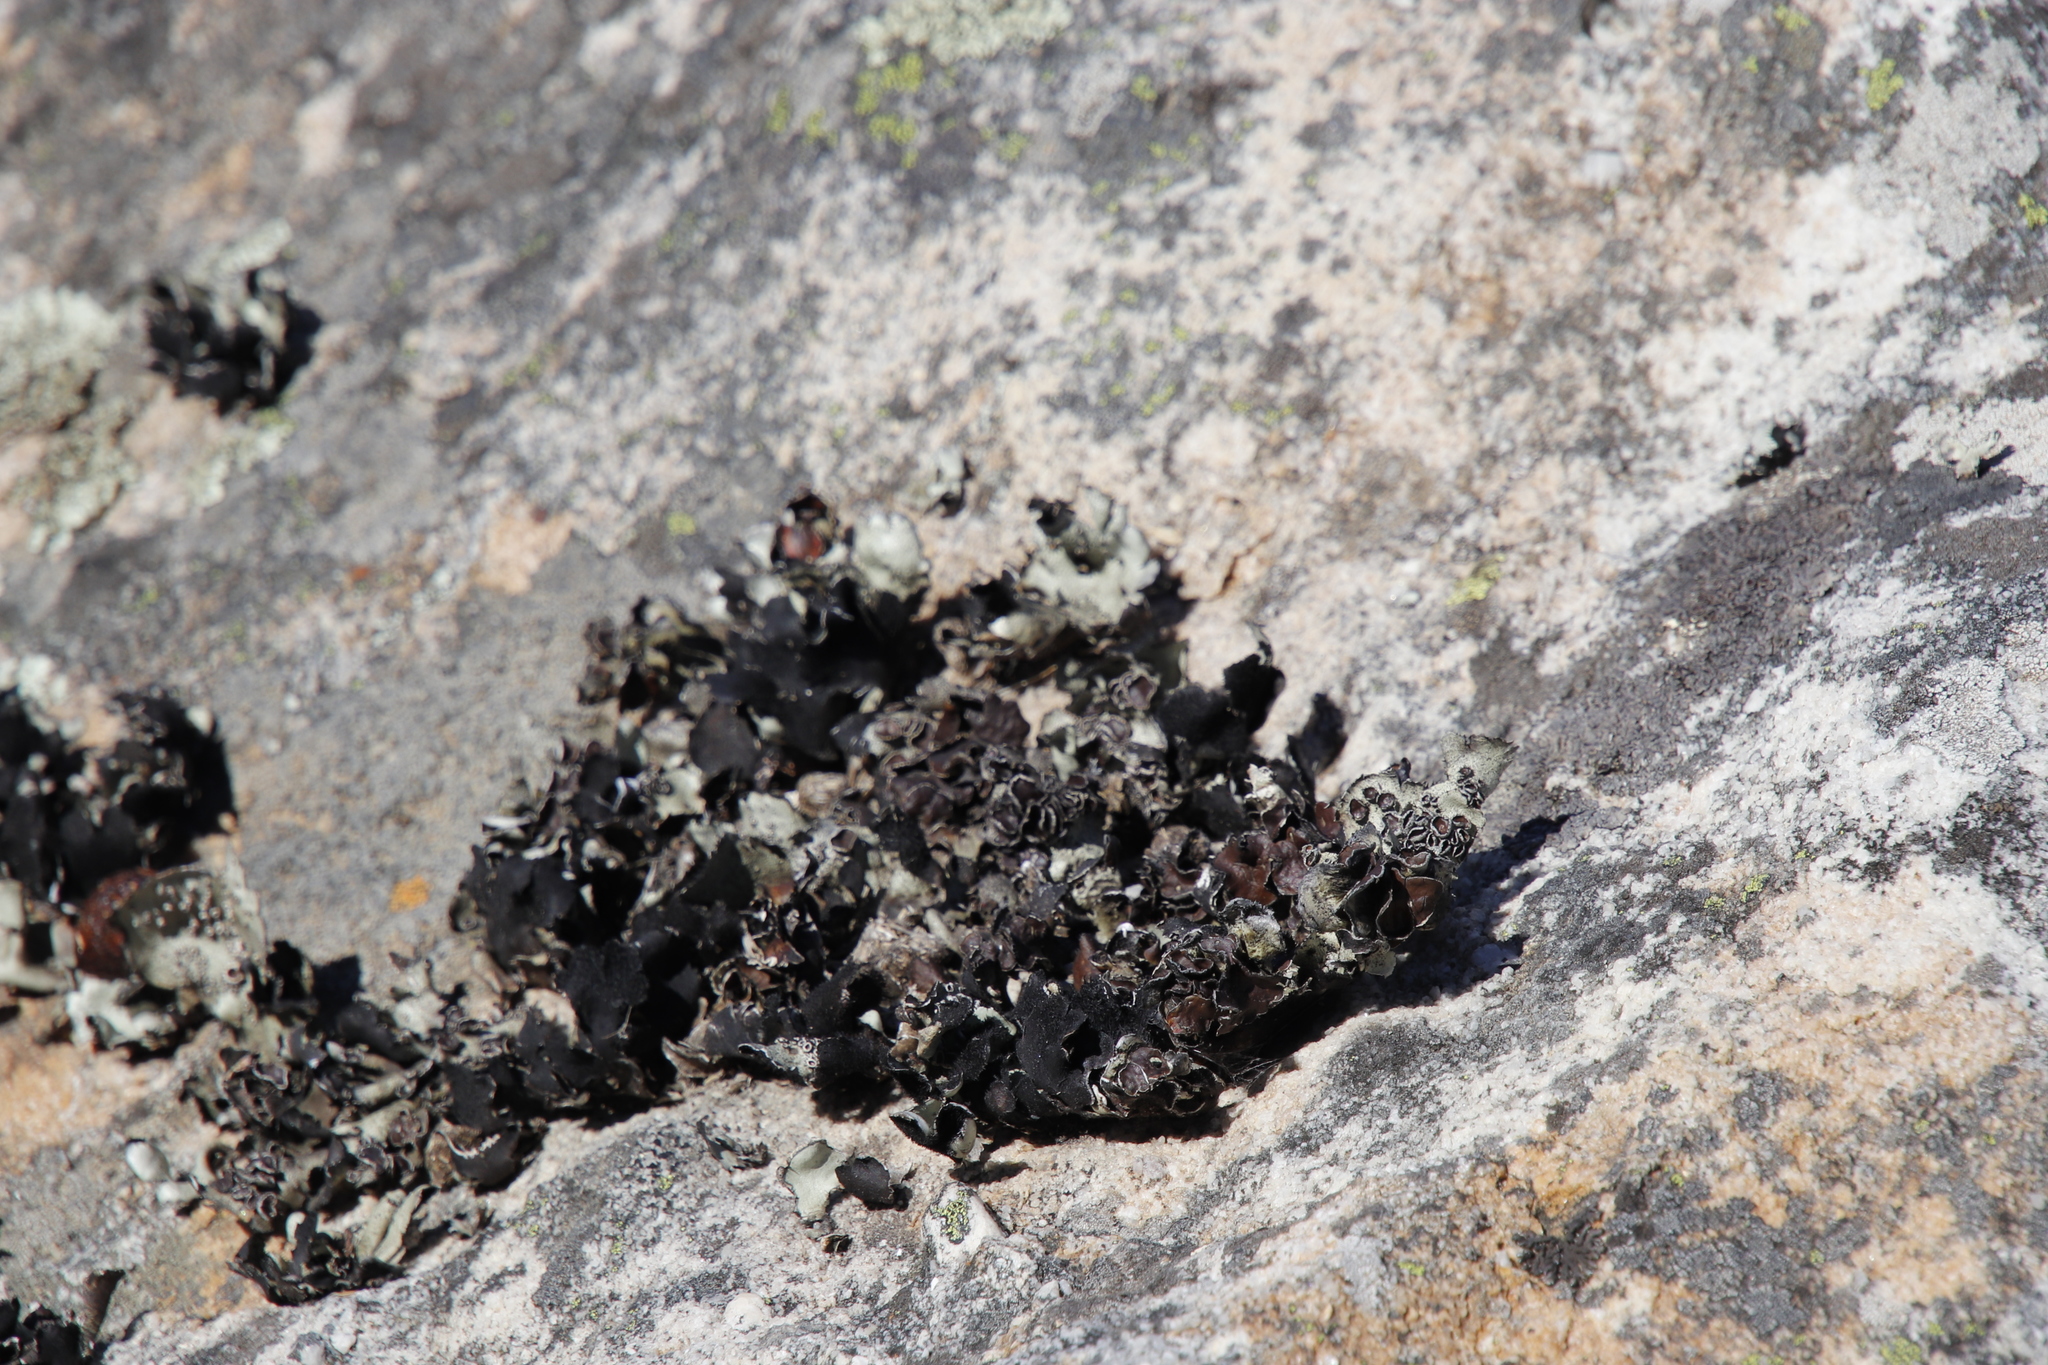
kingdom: Fungi
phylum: Ascomycota
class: Lecanoromycetes
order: Lecanorales
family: Parmeliaceae
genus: Xanthoparmelia
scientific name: Xanthoparmelia hottentotta
